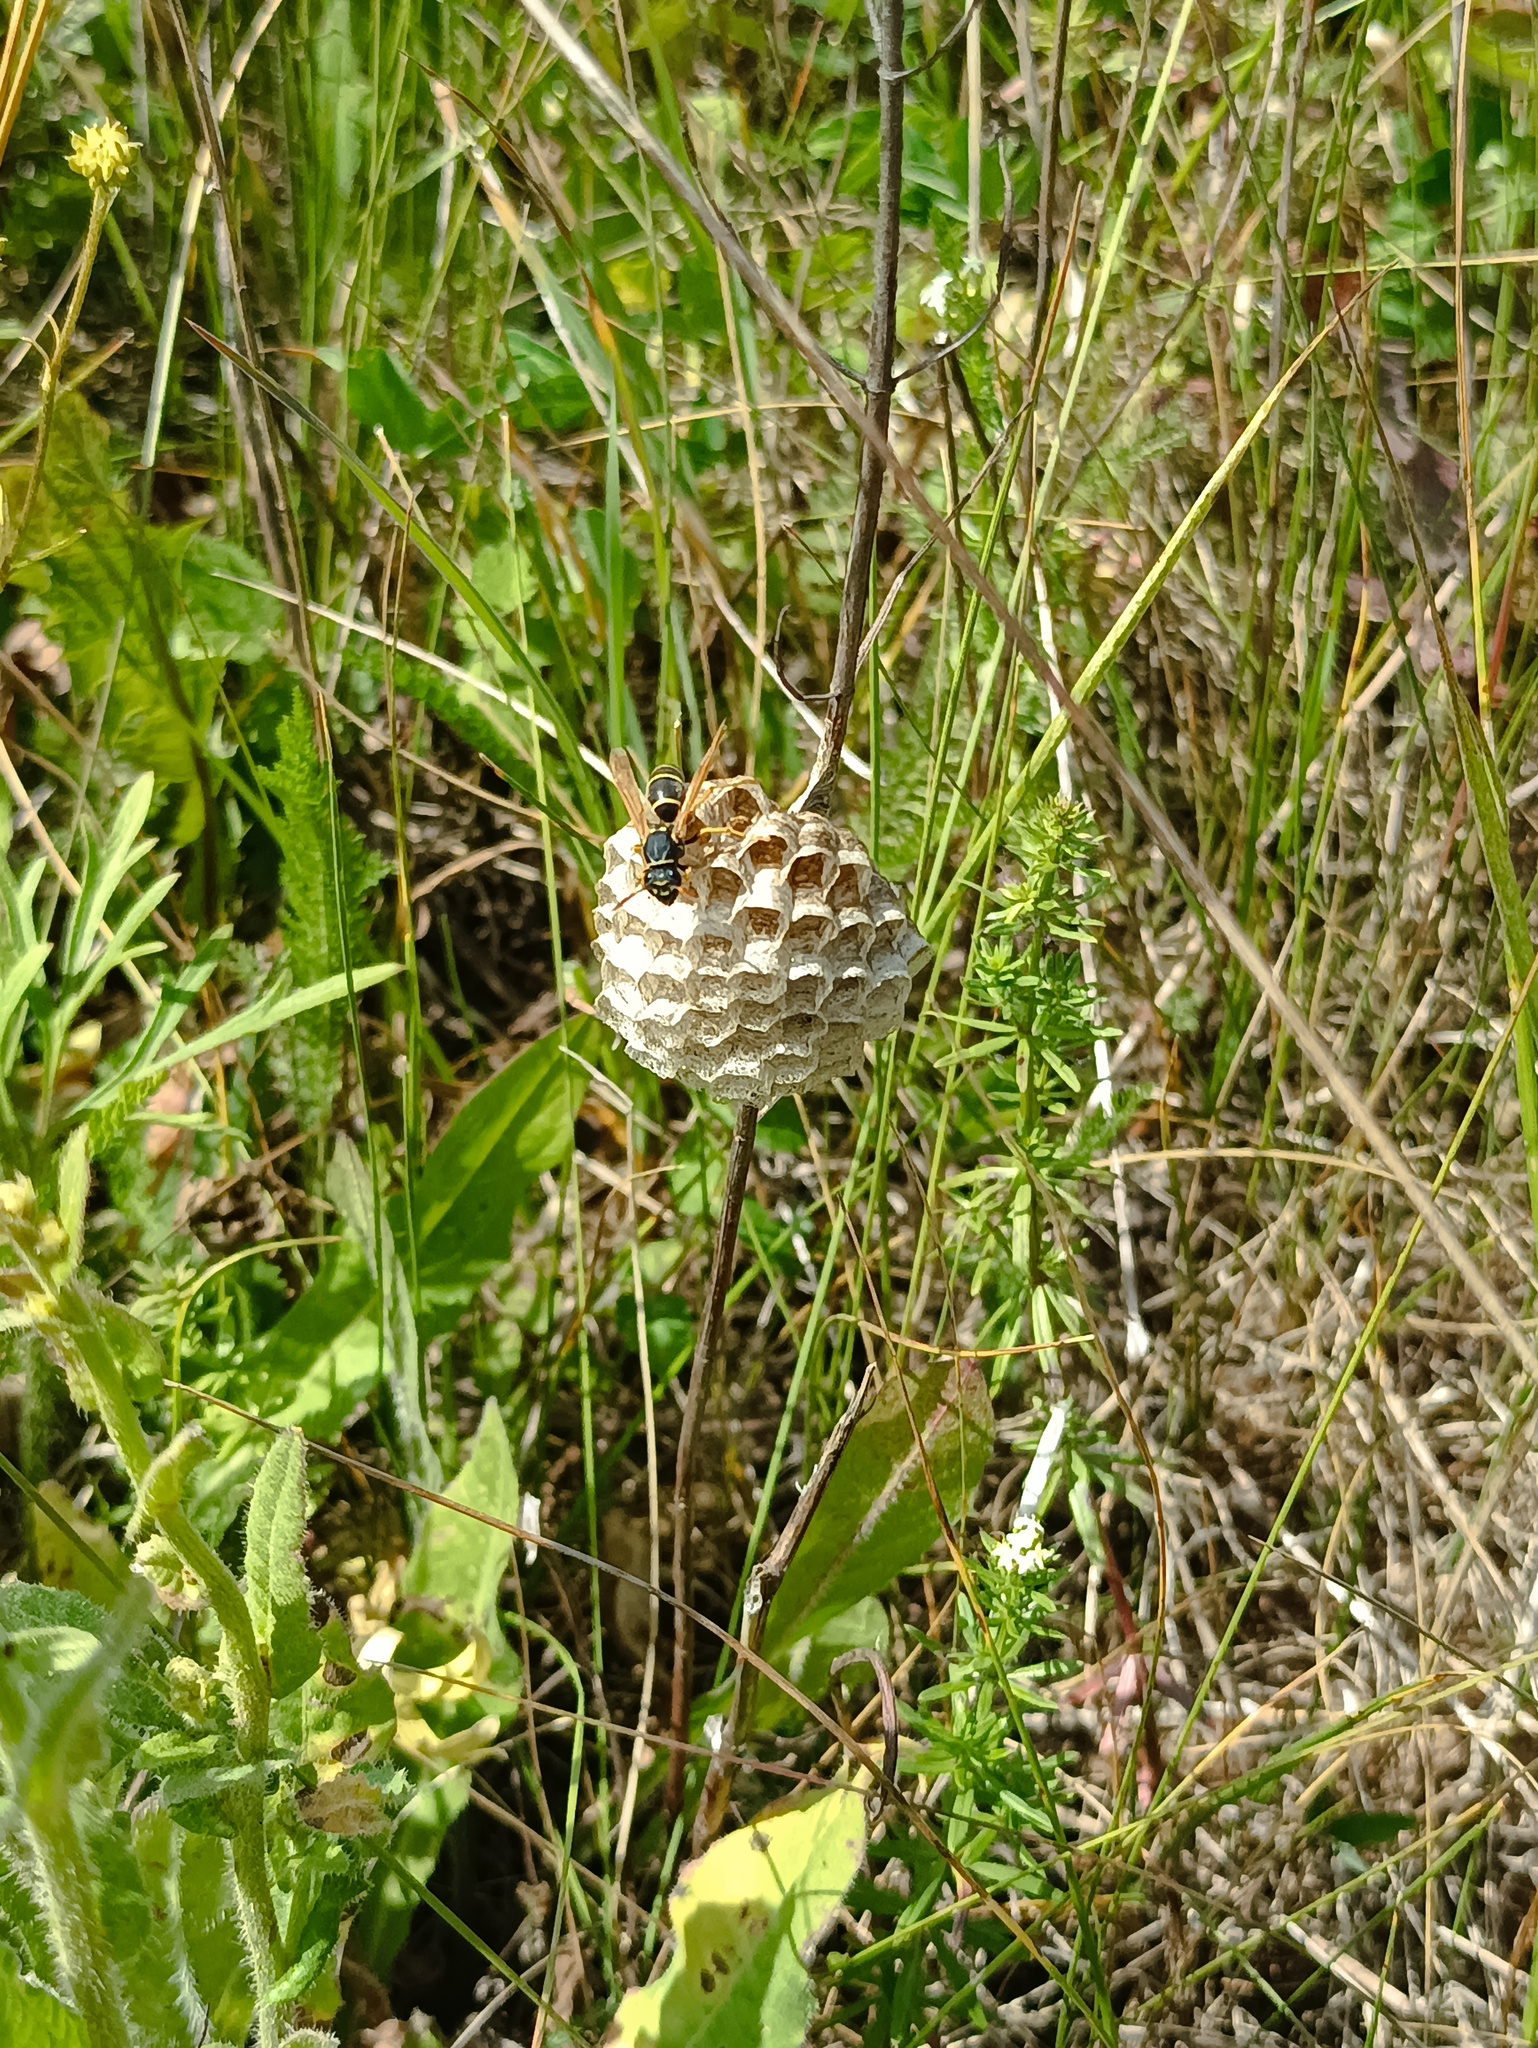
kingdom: Animalia
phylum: Arthropoda
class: Insecta
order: Hymenoptera
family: Eumenidae
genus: Polistes
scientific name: Polistes nimpha
